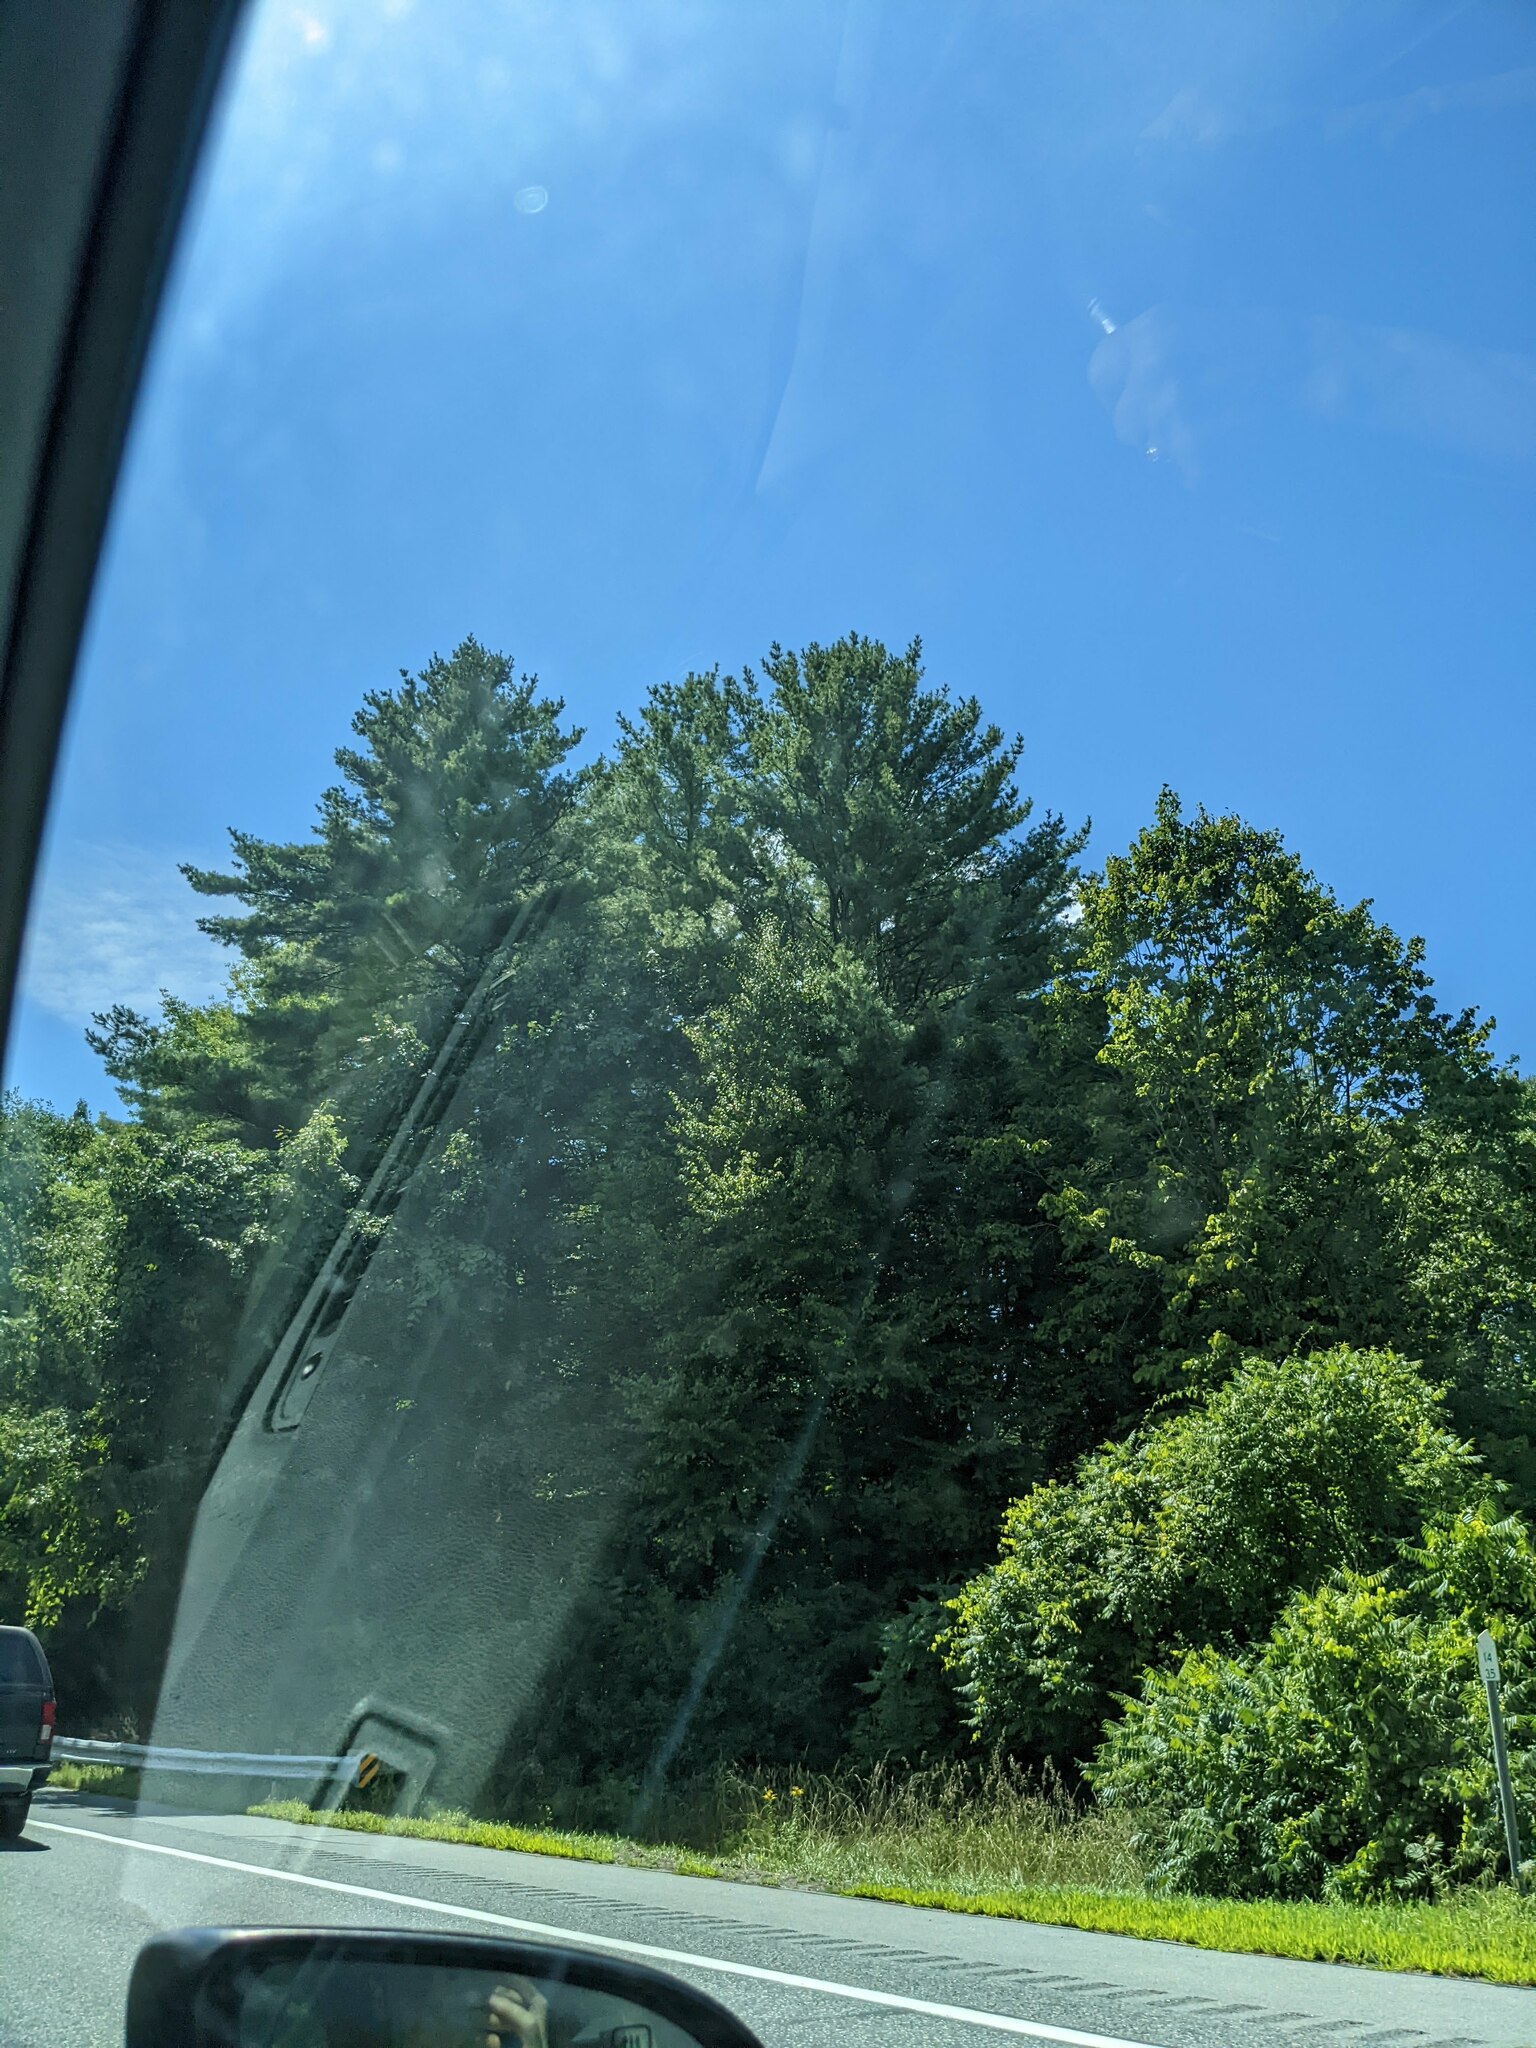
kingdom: Plantae
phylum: Tracheophyta
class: Pinopsida
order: Pinales
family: Pinaceae
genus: Pinus
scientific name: Pinus strobus
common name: Weymouth pine
